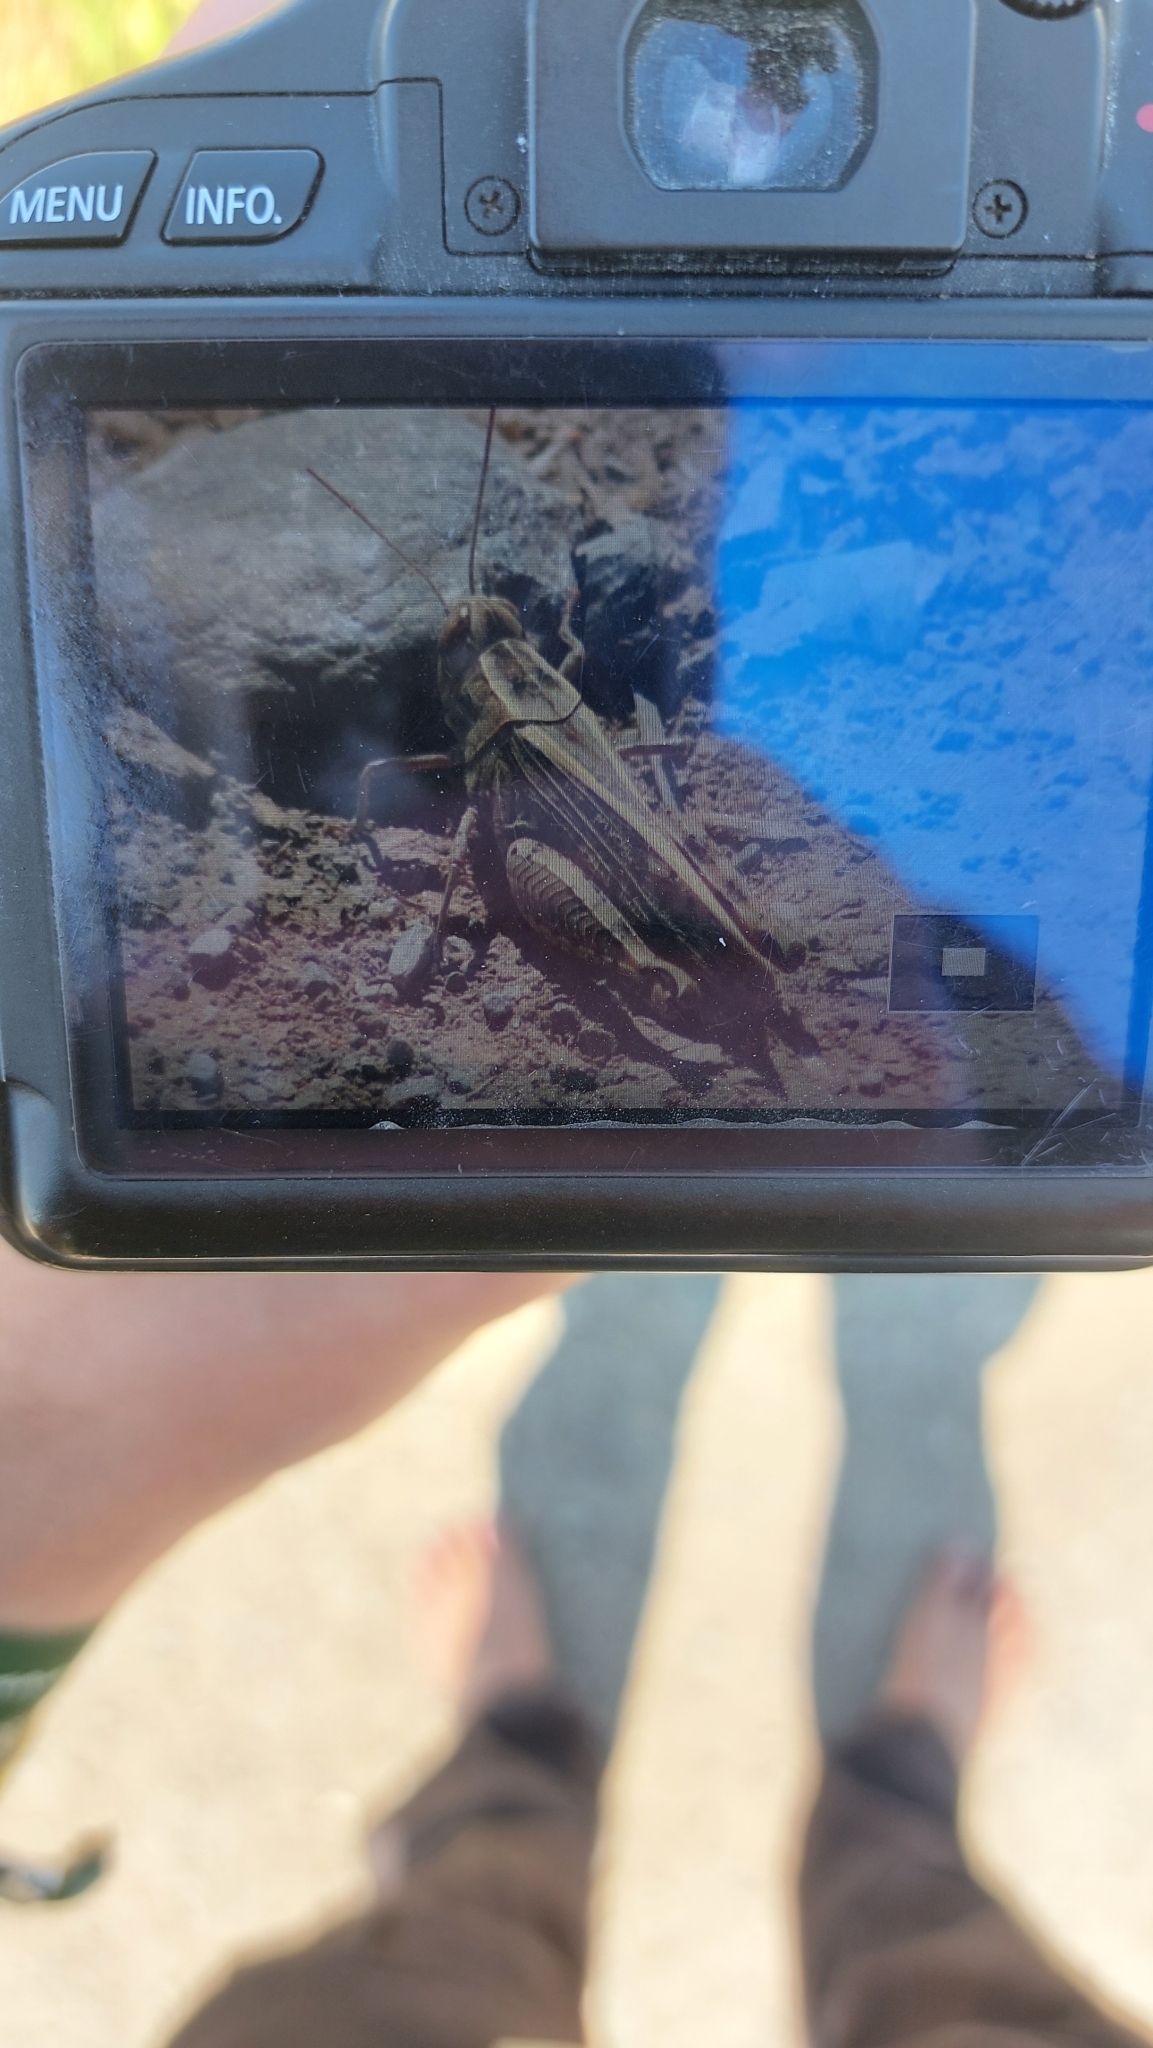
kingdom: Animalia
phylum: Arthropoda
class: Insecta
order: Orthoptera
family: Acrididae
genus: Calliptamus
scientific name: Calliptamus italicus
